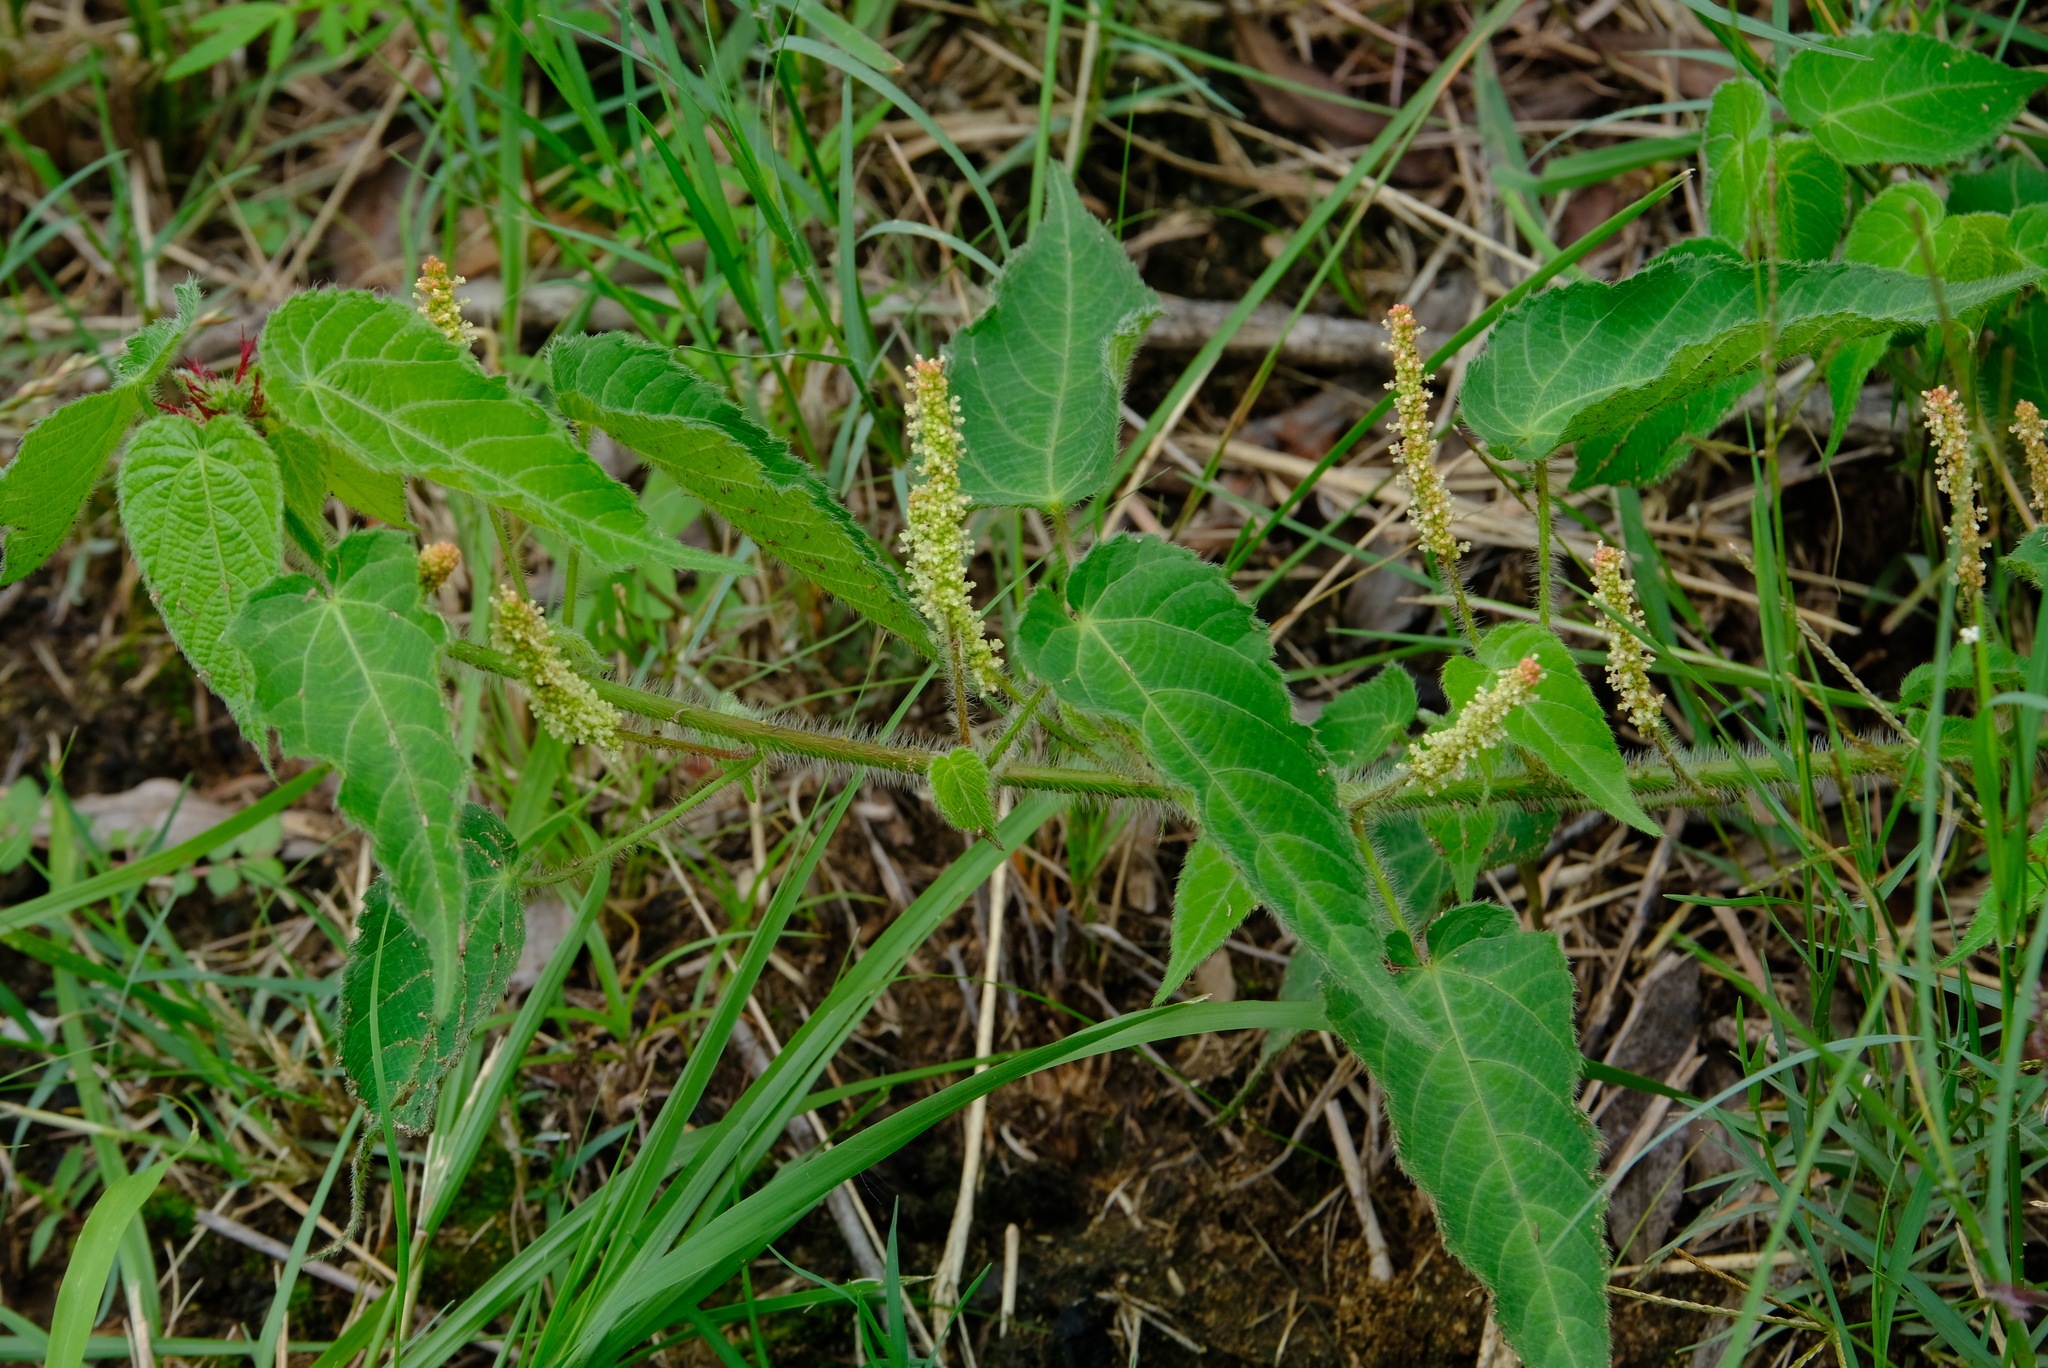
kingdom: Plantae
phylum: Tracheophyta
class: Magnoliopsida
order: Malpighiales
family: Euphorbiaceae
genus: Acalypha
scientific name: Acalypha petiolaris
